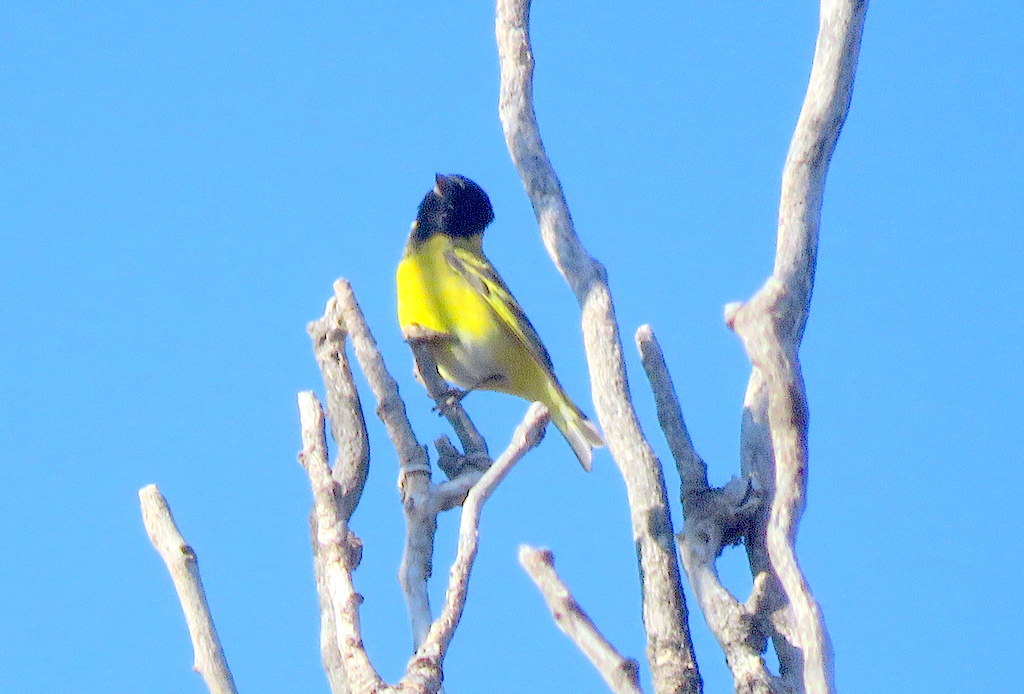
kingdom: Animalia
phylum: Chordata
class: Aves
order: Passeriformes
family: Fringillidae
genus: Spinus
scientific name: Spinus magellanicus
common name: Hooded siskin
